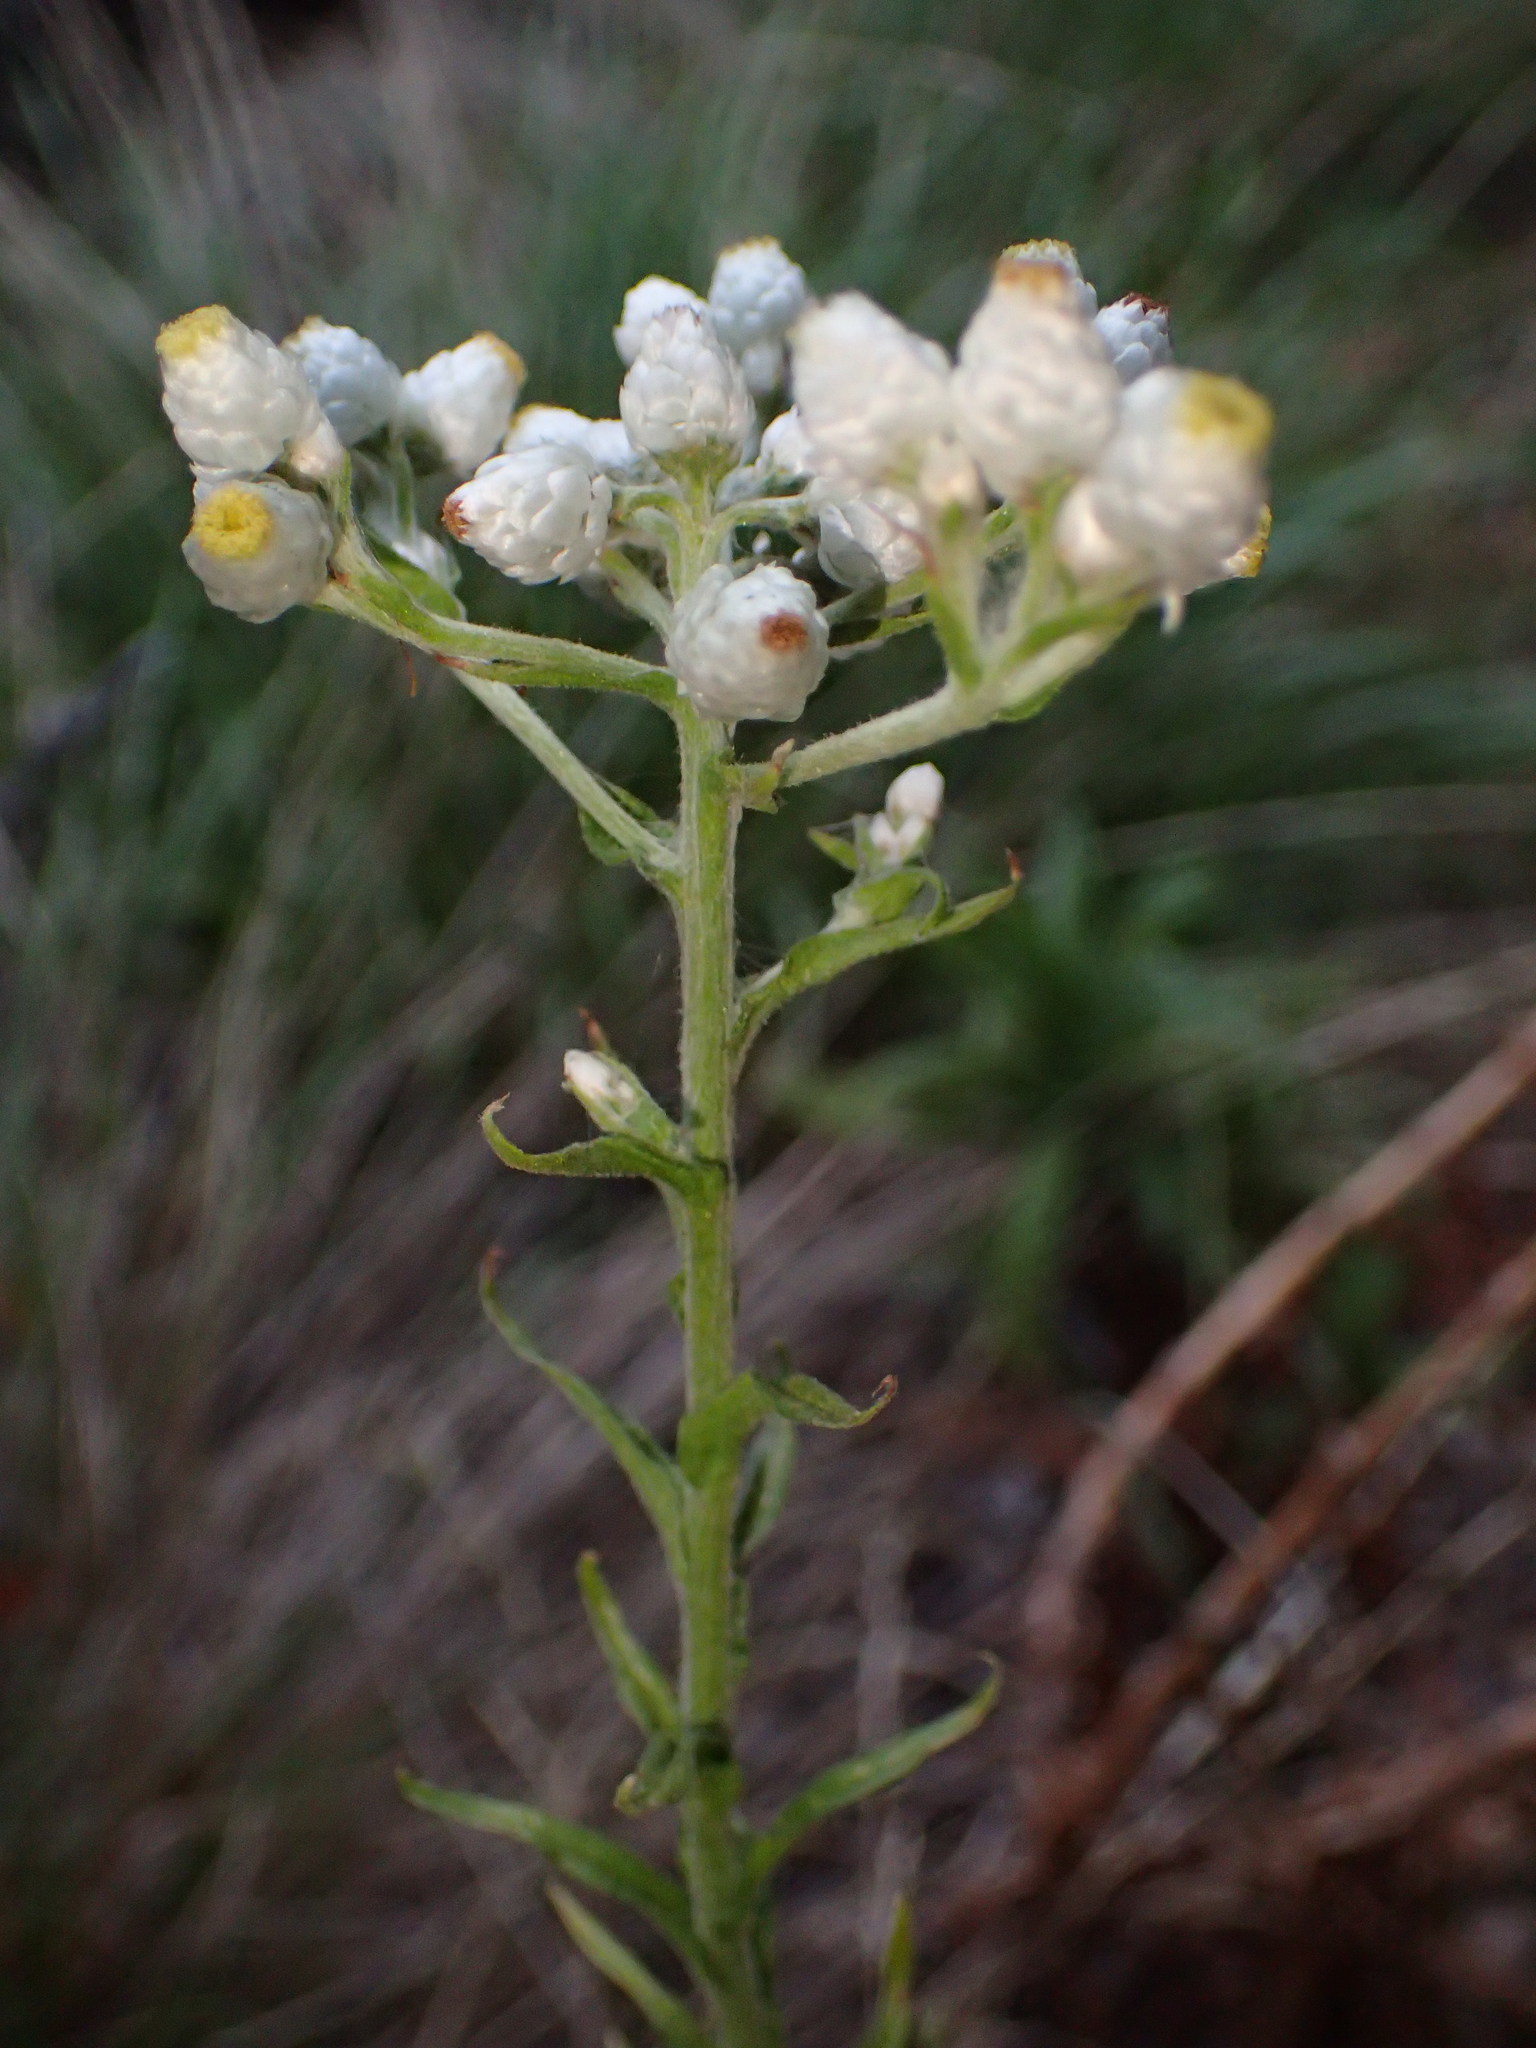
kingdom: Plantae
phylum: Tracheophyta
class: Magnoliopsida
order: Asterales
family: Asteraceae
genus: Pseudognaphalium
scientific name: Pseudognaphalium californicum
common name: California rabbit-tobacco
